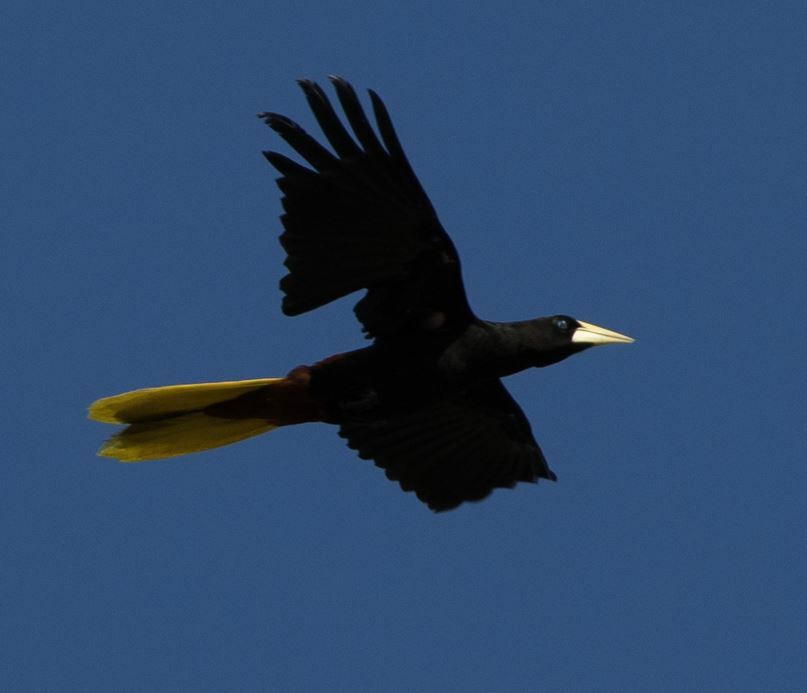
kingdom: Animalia
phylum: Chordata
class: Aves
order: Passeriformes
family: Icteridae
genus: Psarocolius
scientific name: Psarocolius decumanus
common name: Crested oropendola
